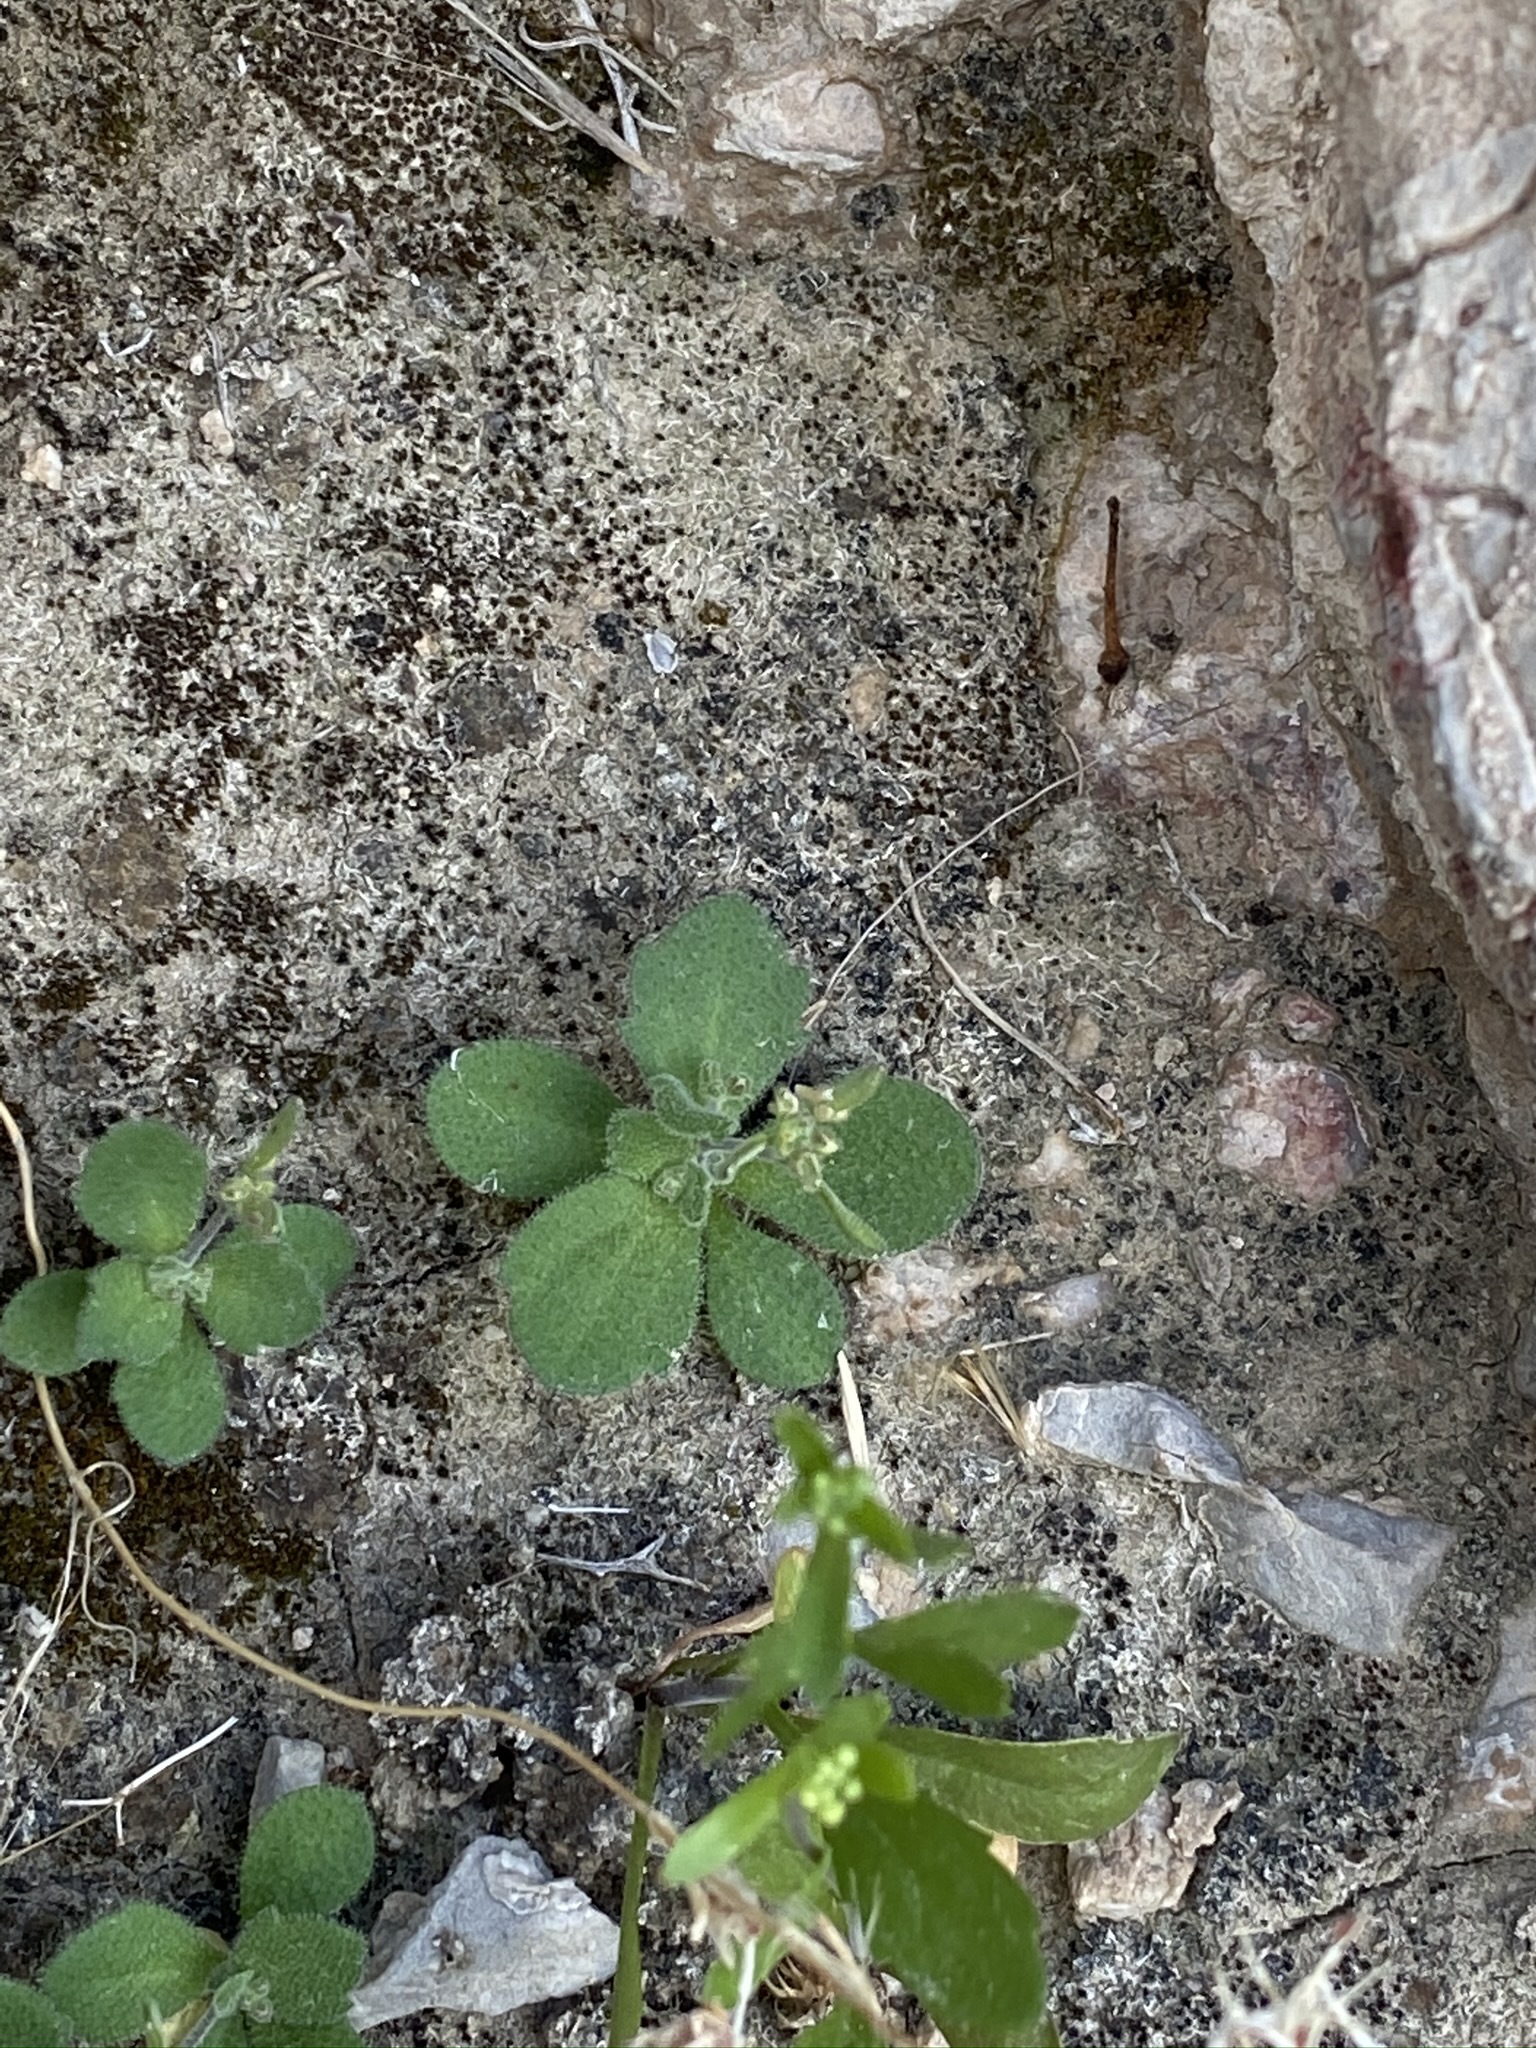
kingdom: Plantae
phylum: Tracheophyta
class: Magnoliopsida
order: Brassicales
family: Brassicaceae
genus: Tomostima
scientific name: Tomostima cuneifolia
